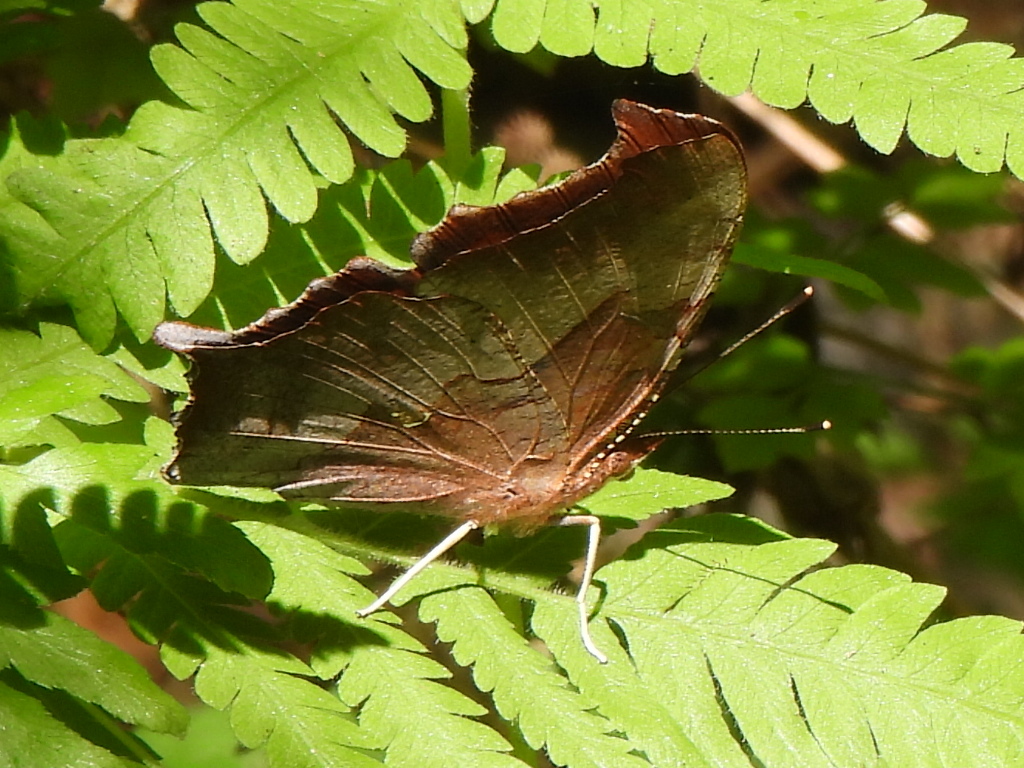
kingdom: Animalia
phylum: Arthropoda
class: Insecta
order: Lepidoptera
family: Nymphalidae
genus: Polygonia
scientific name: Polygonia interrogationis
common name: Question mark
